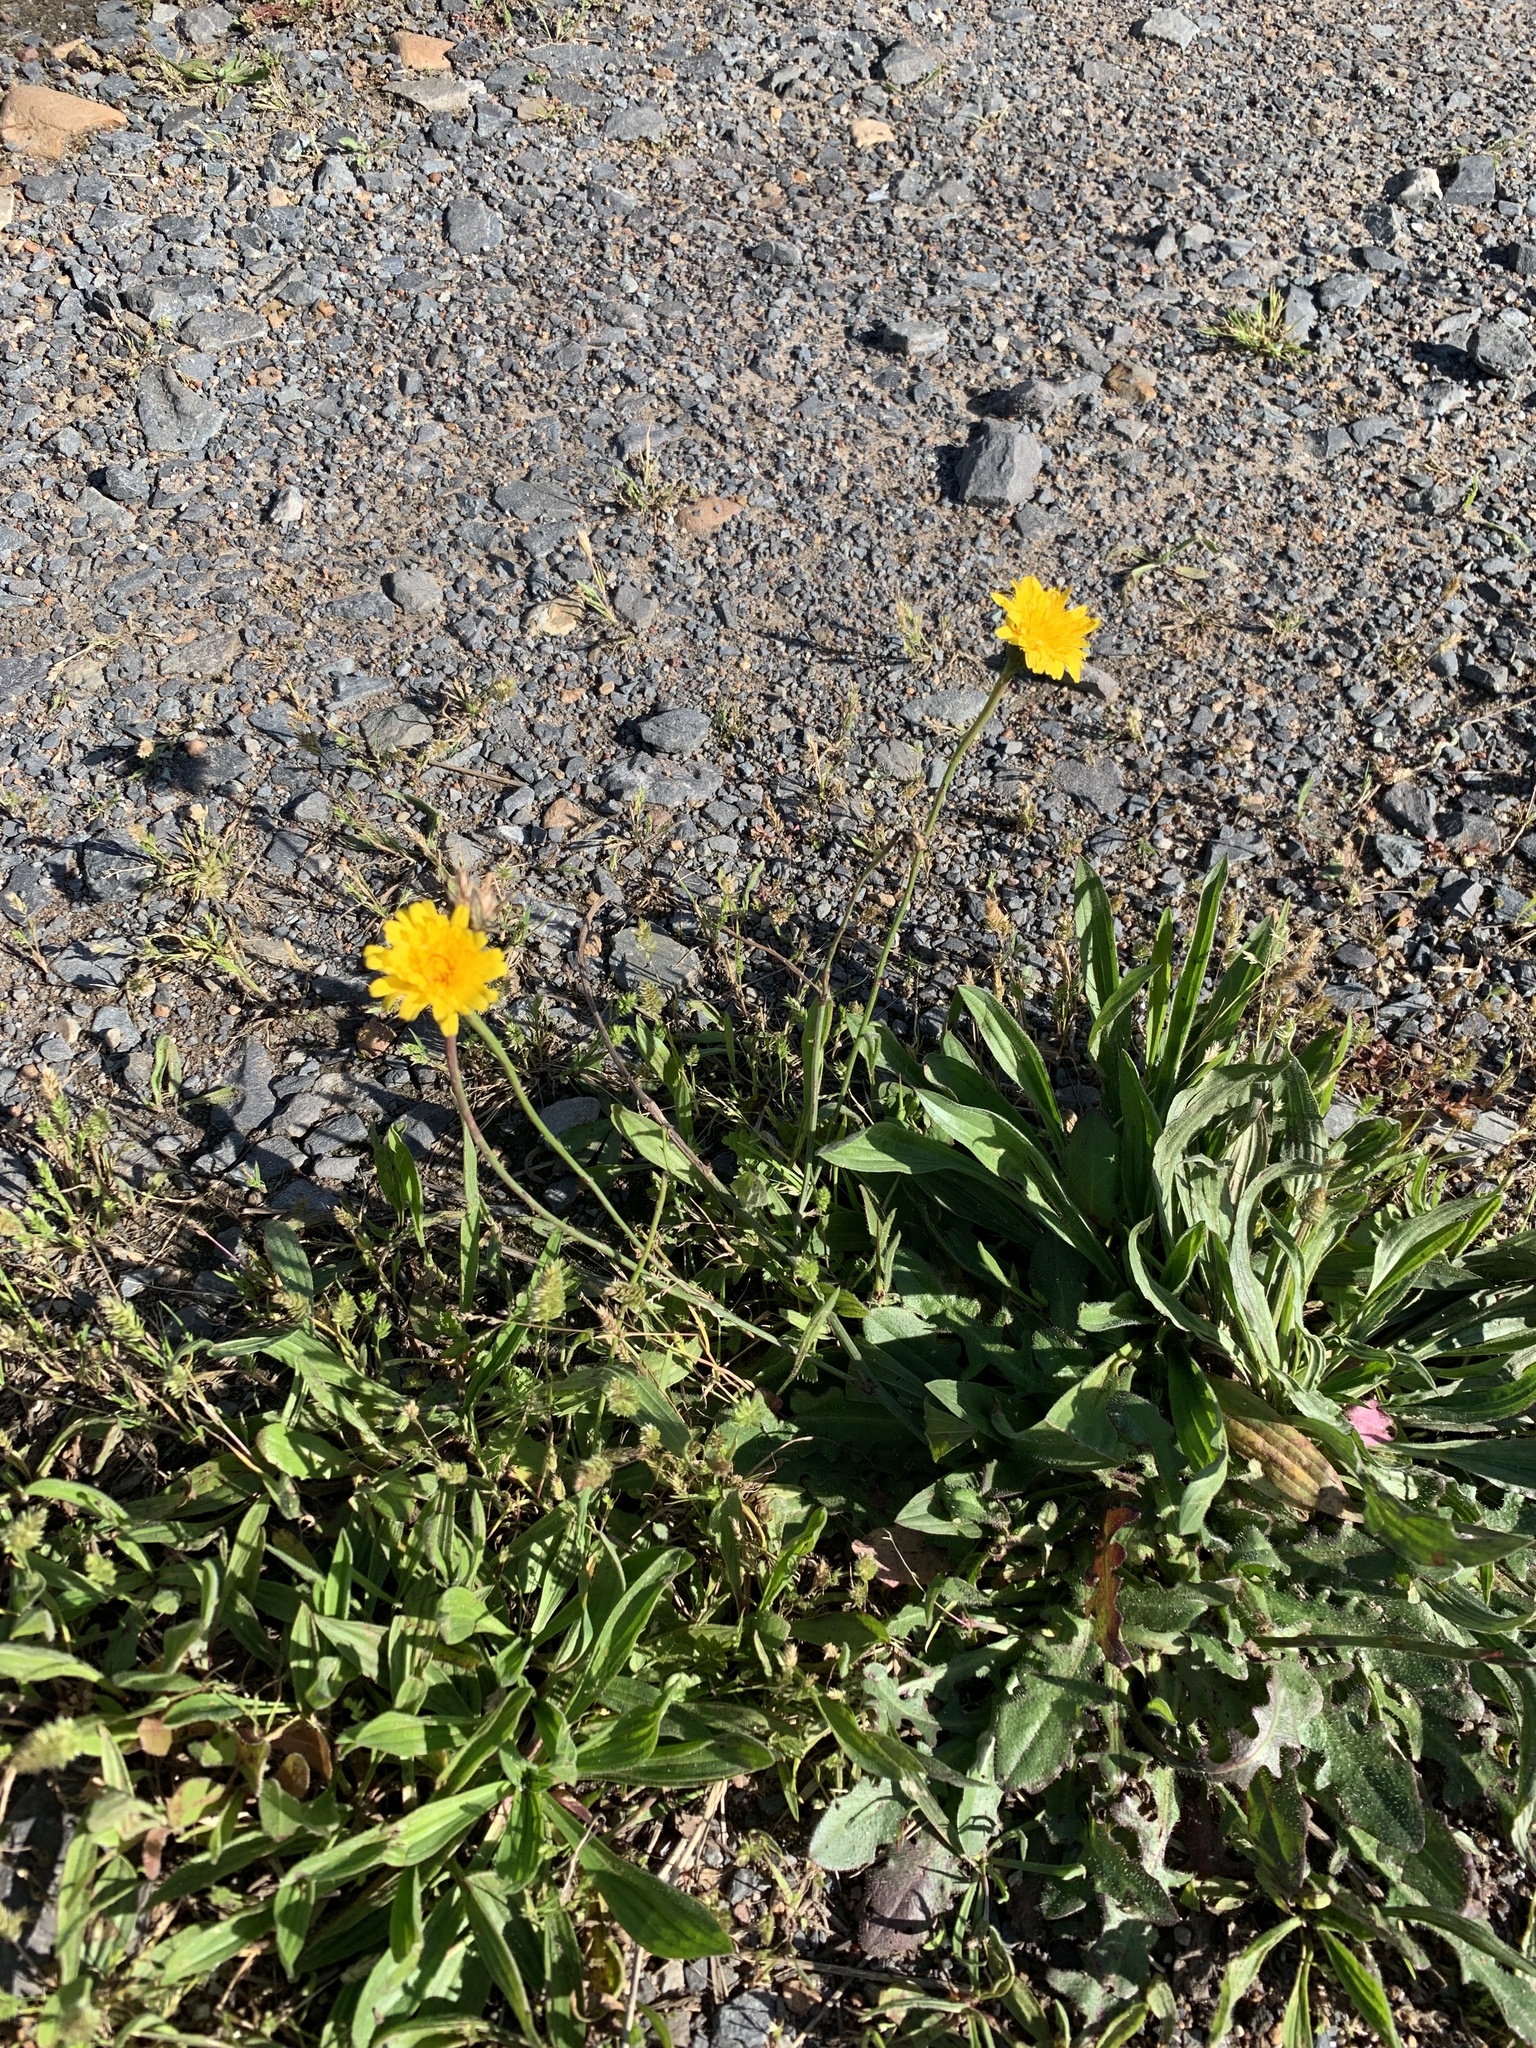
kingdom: Plantae
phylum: Tracheophyta
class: Magnoliopsida
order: Asterales
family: Asteraceae
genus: Hypochaeris
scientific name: Hypochaeris radicata
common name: Flatweed
